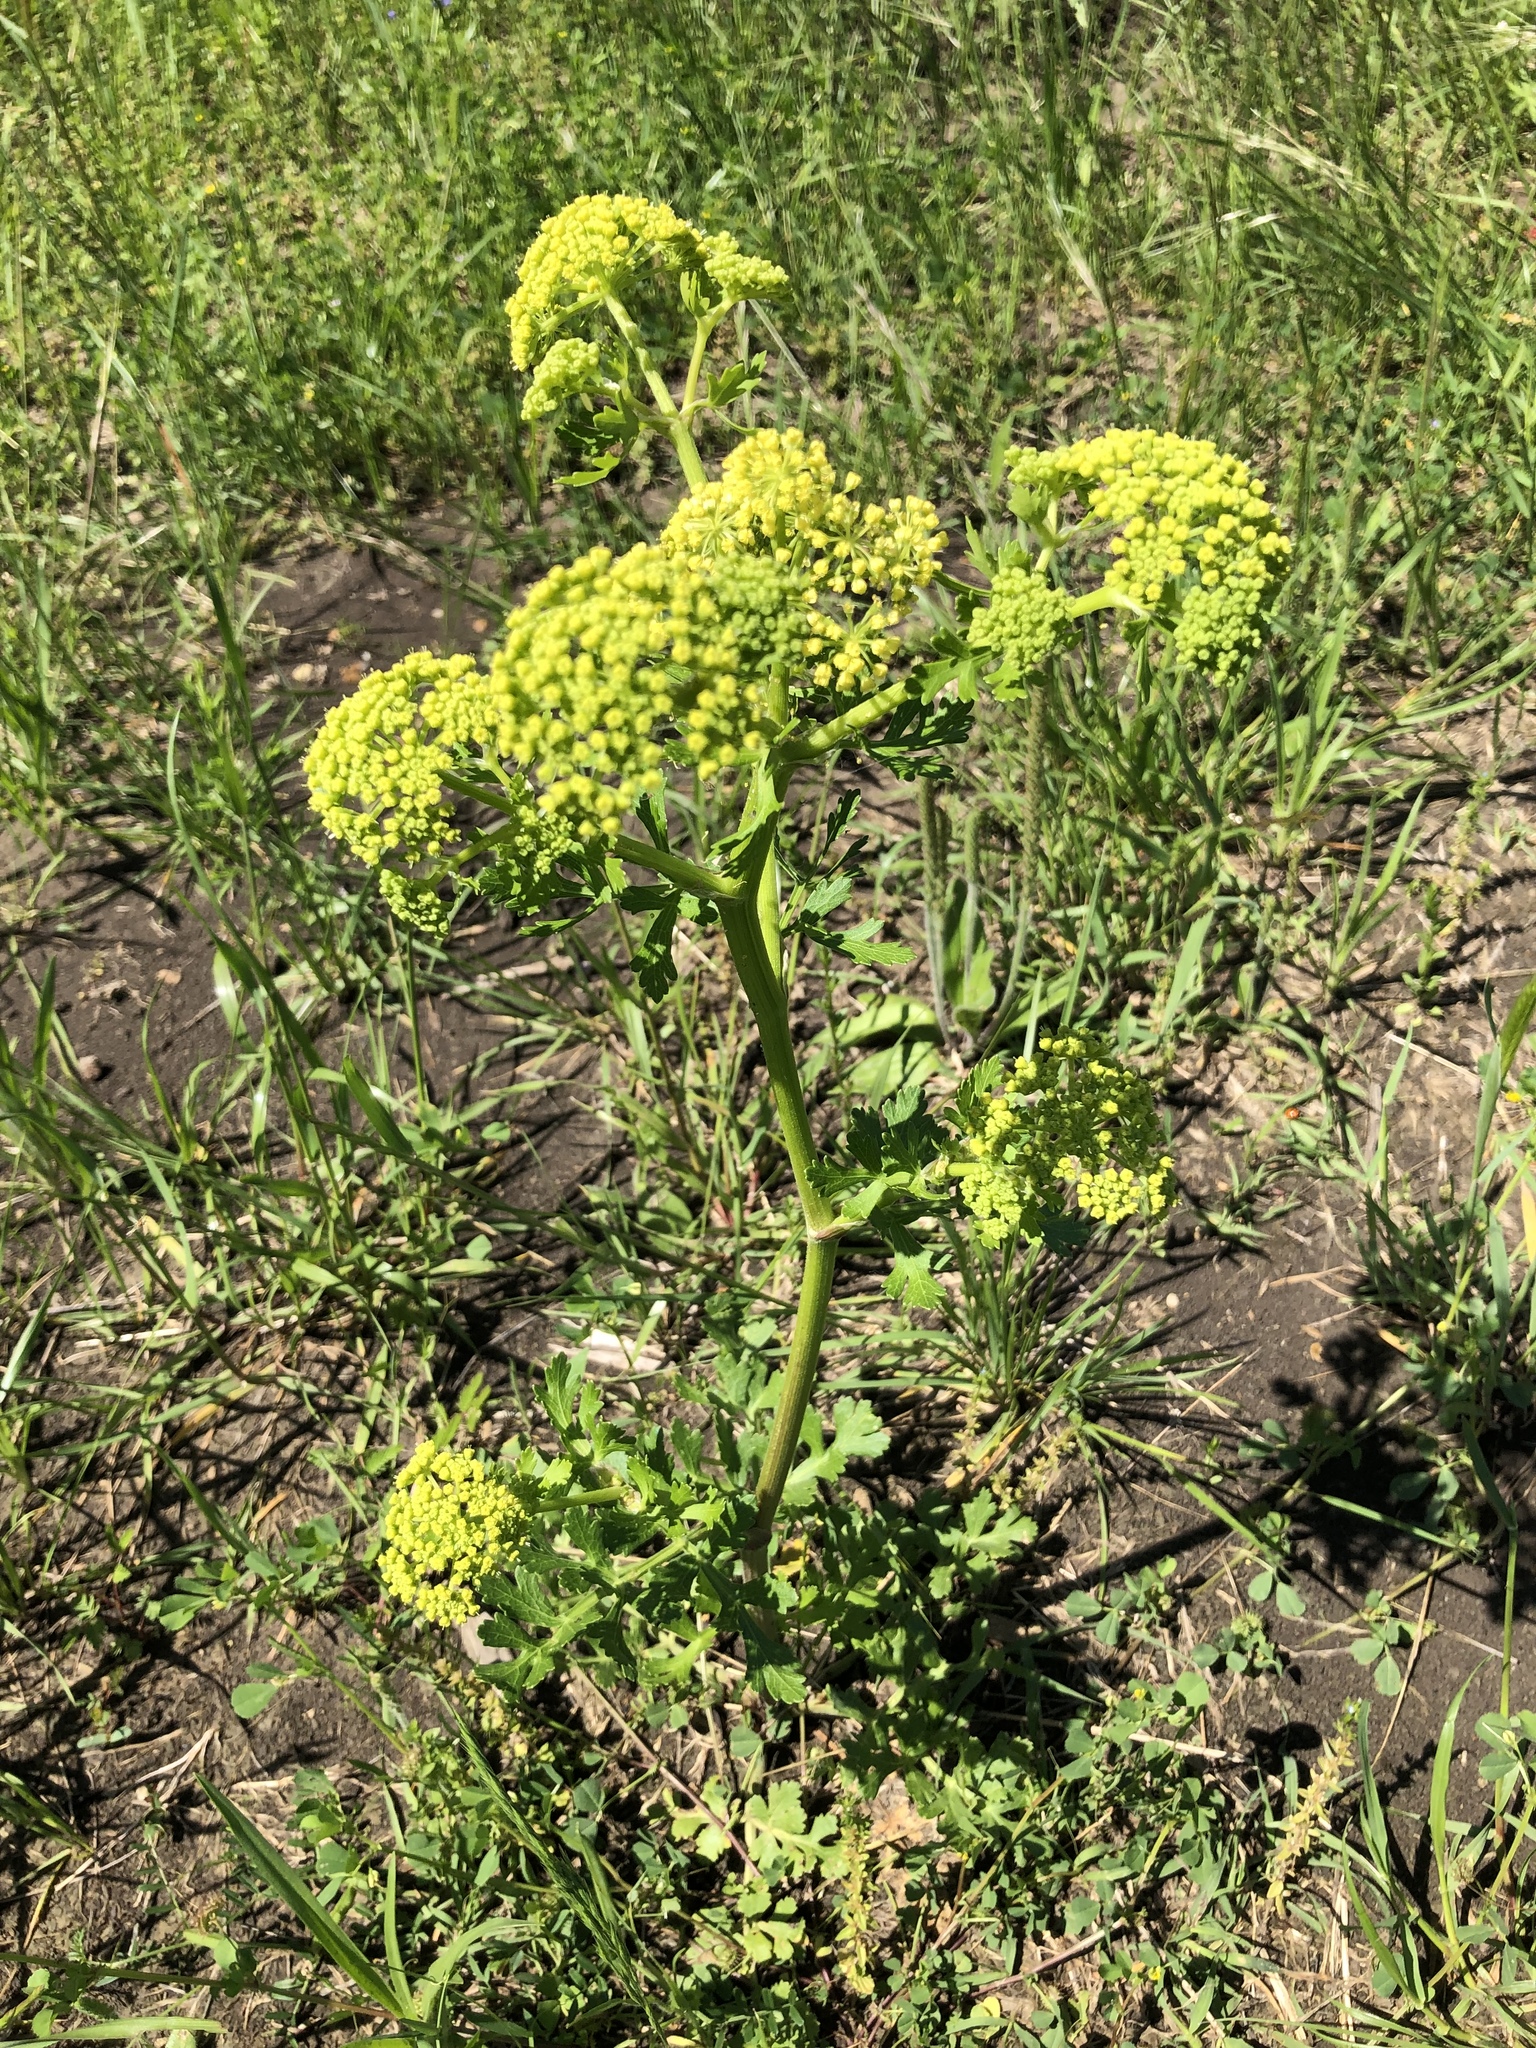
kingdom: Plantae
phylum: Tracheophyta
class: Magnoliopsida
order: Apiales
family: Apiaceae
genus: Polytaenia
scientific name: Polytaenia texana
